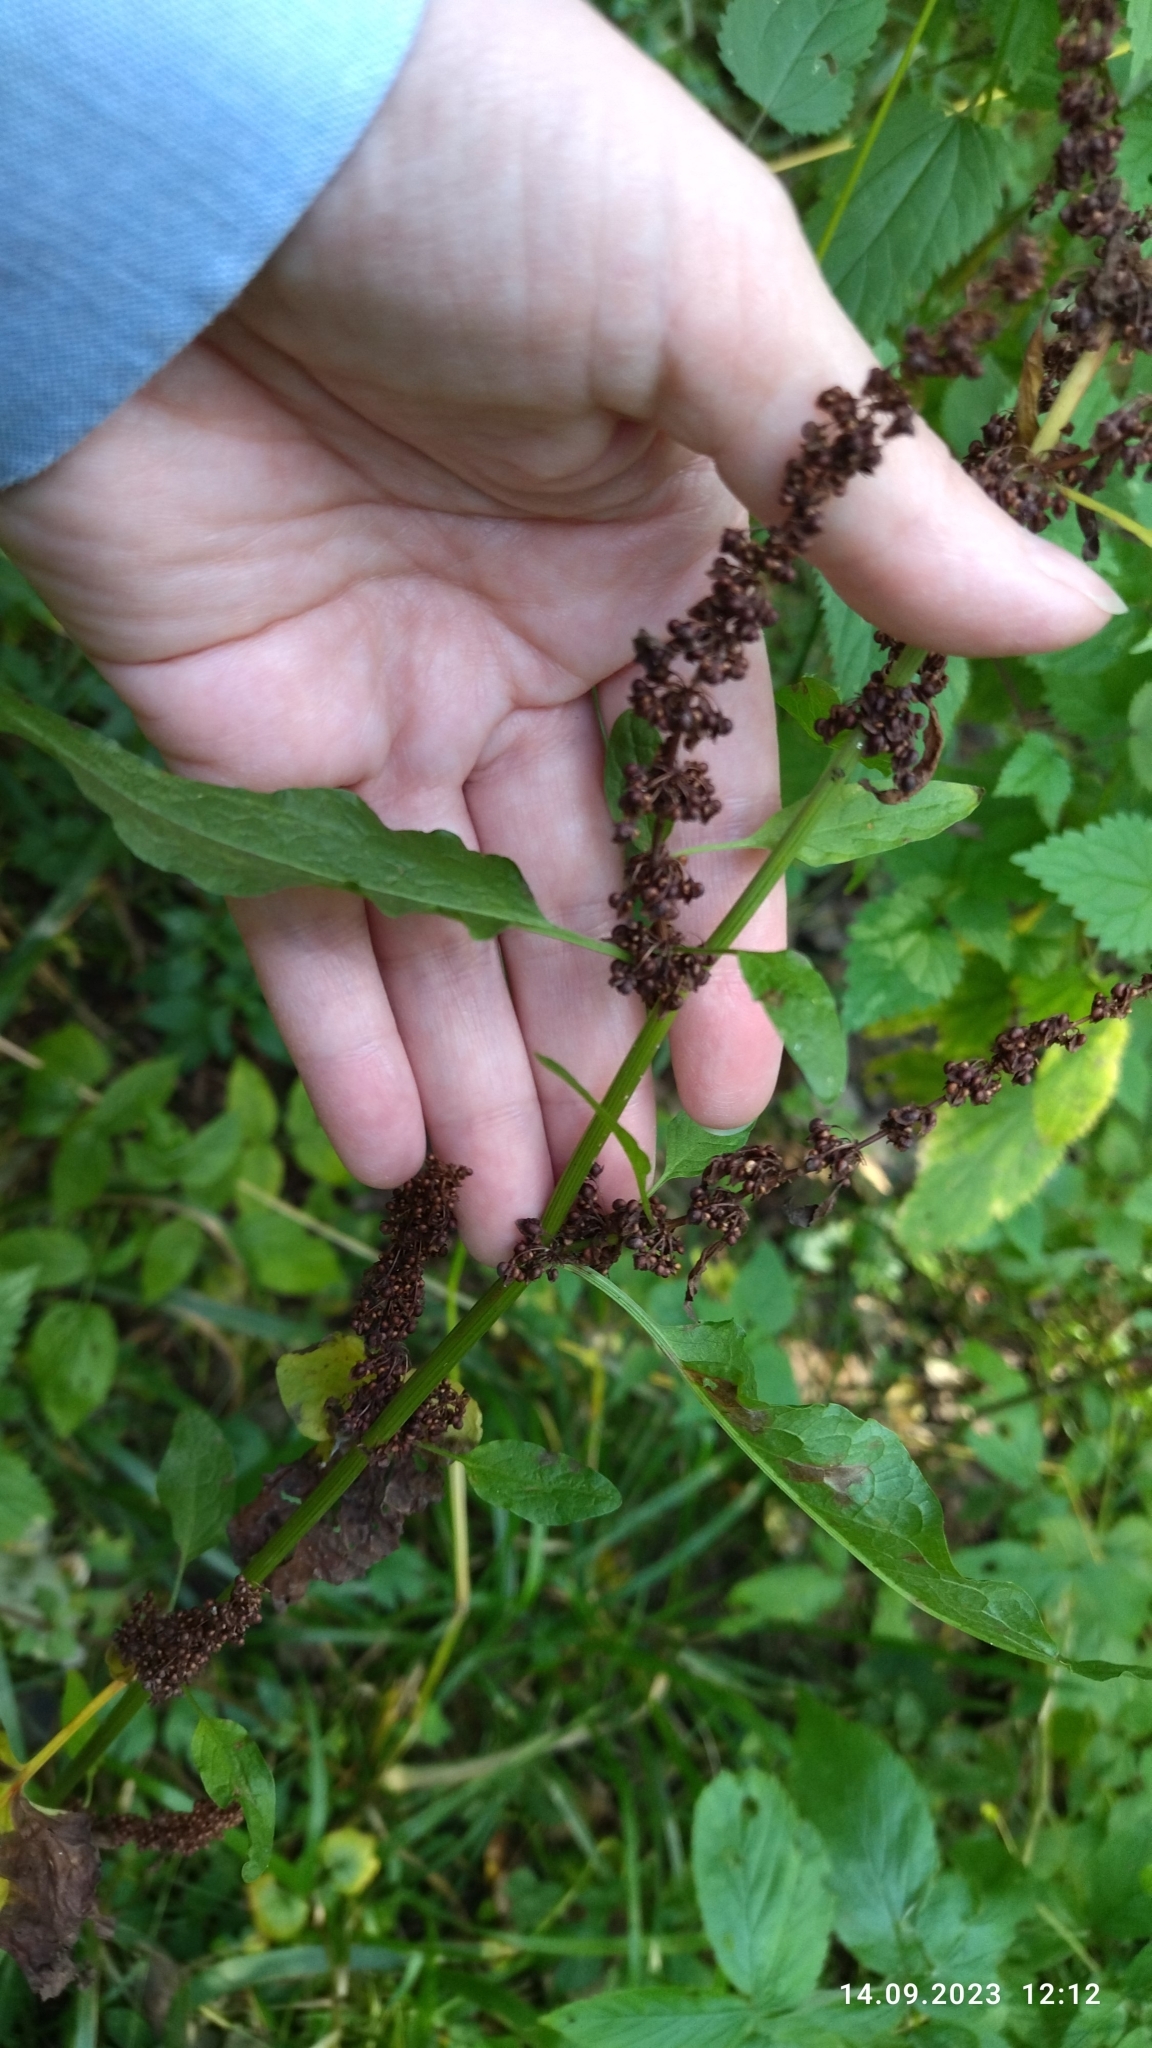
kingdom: Plantae
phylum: Tracheophyta
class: Magnoliopsida
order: Caryophyllales
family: Polygonaceae
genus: Rumex
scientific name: Rumex obtusifolius
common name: Bitter dock
